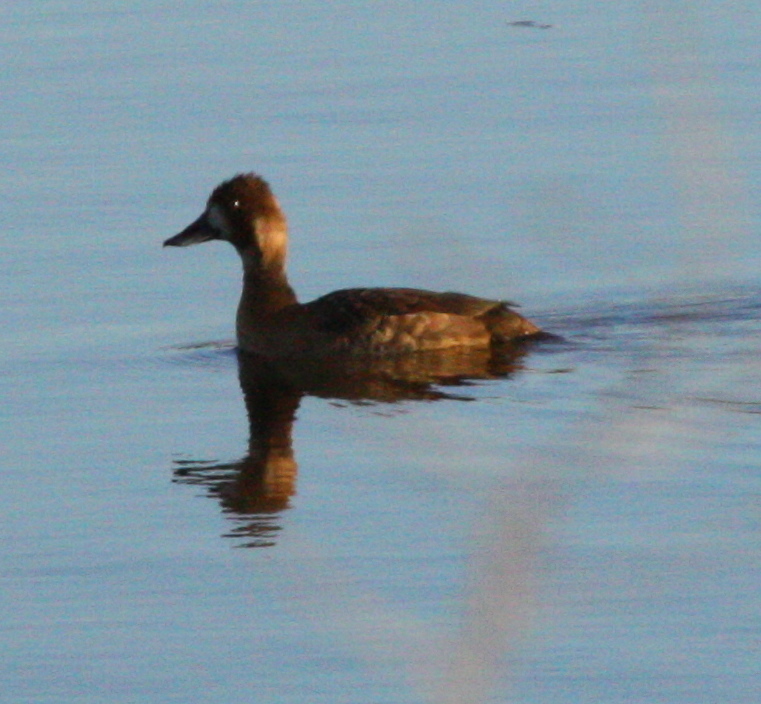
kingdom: Animalia
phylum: Chordata
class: Aves
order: Anseriformes
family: Anatidae
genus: Aythya
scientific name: Aythya affinis
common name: Lesser scaup
